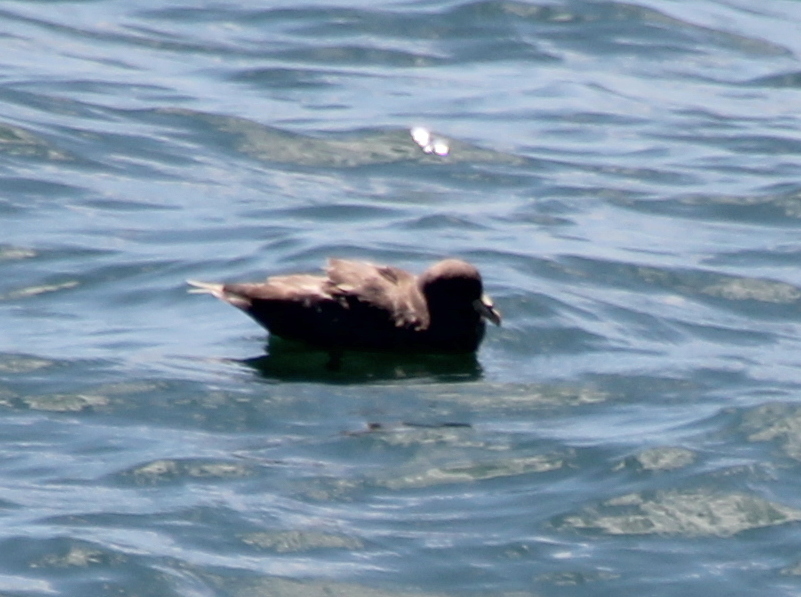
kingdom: Animalia
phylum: Chordata
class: Aves
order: Procellariiformes
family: Procellariidae
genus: Fulmarus
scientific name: Fulmarus glacialis
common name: Northern fulmar
